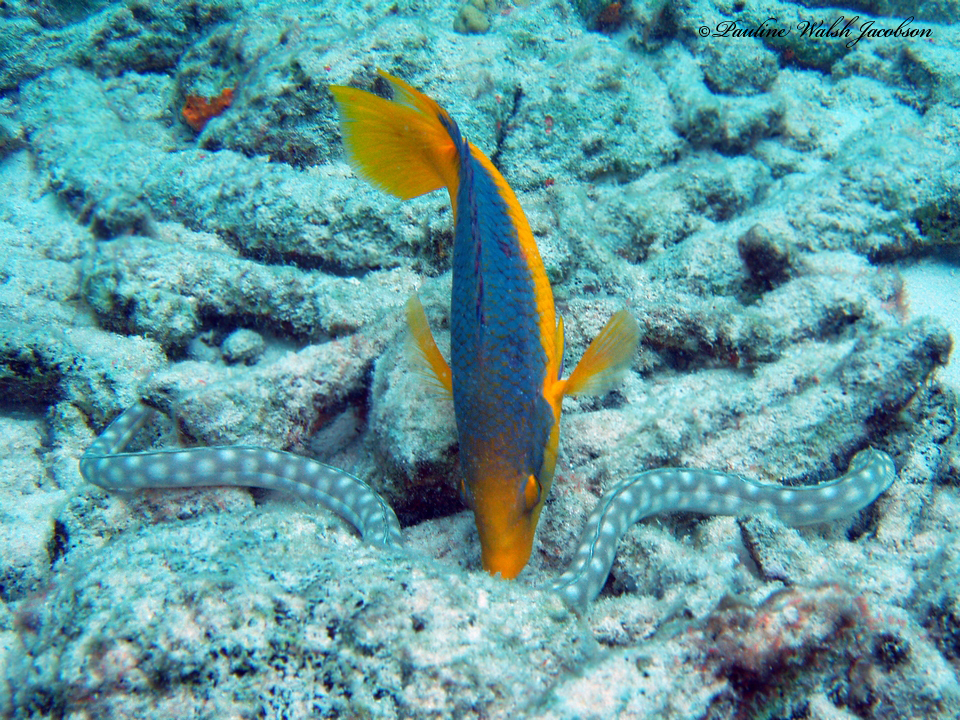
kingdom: Animalia
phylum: Chordata
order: Perciformes
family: Labridae
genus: Bodianus
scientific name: Bodianus rufus
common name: Spanish hogfish
